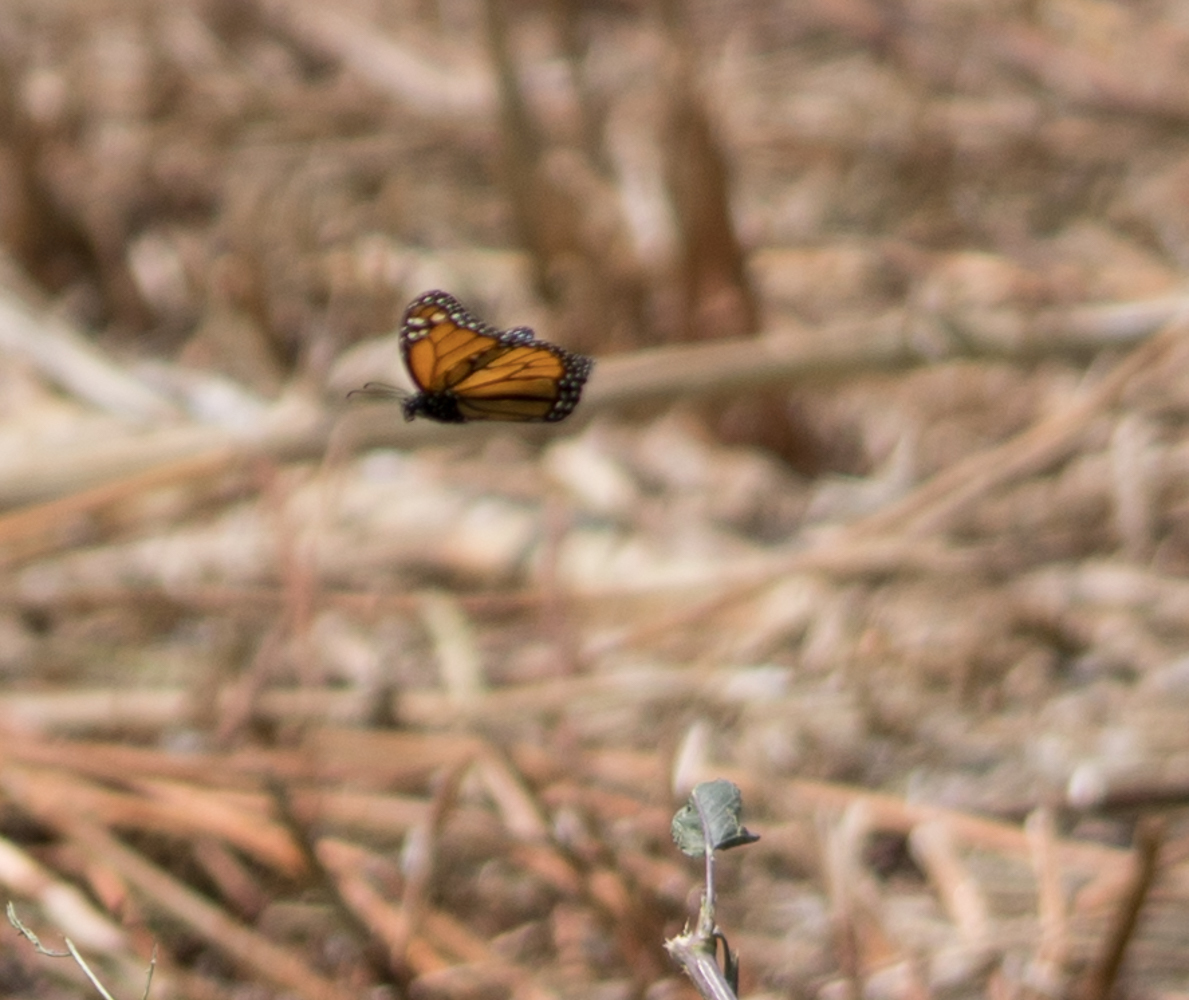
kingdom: Animalia
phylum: Arthropoda
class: Insecta
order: Lepidoptera
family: Nymphalidae
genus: Danaus
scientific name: Danaus plexippus
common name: Monarch
